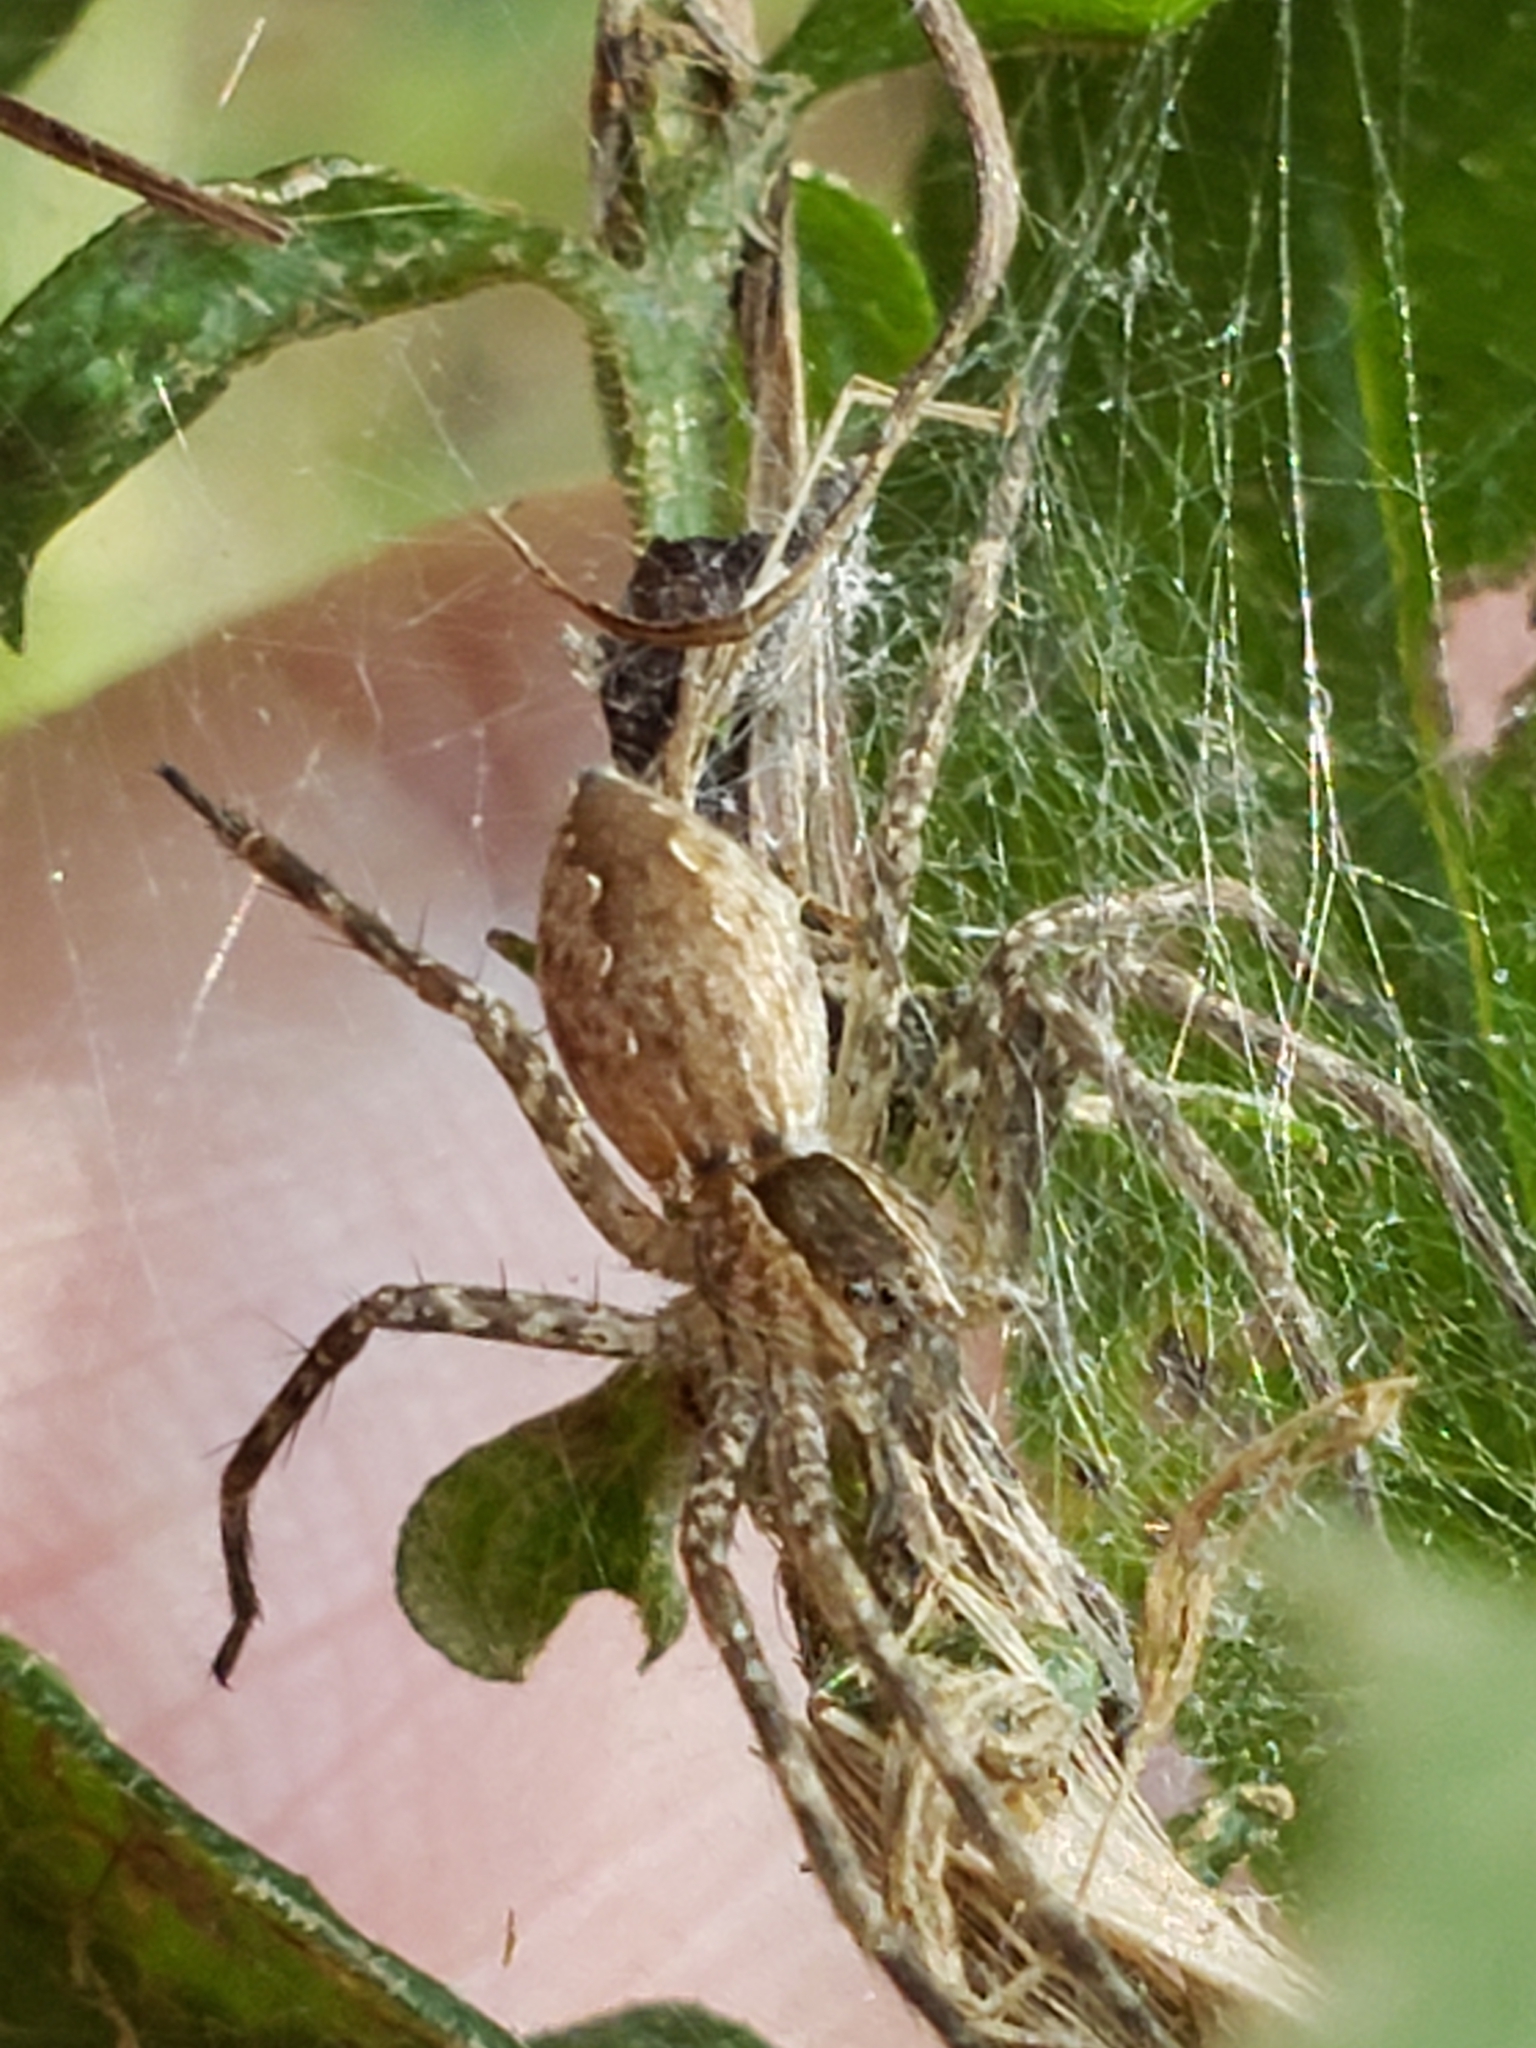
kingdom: Animalia
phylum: Arthropoda
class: Arachnida
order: Araneae
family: Pisauridae
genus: Pisaurina
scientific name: Pisaurina mira
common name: American nursery web spider
